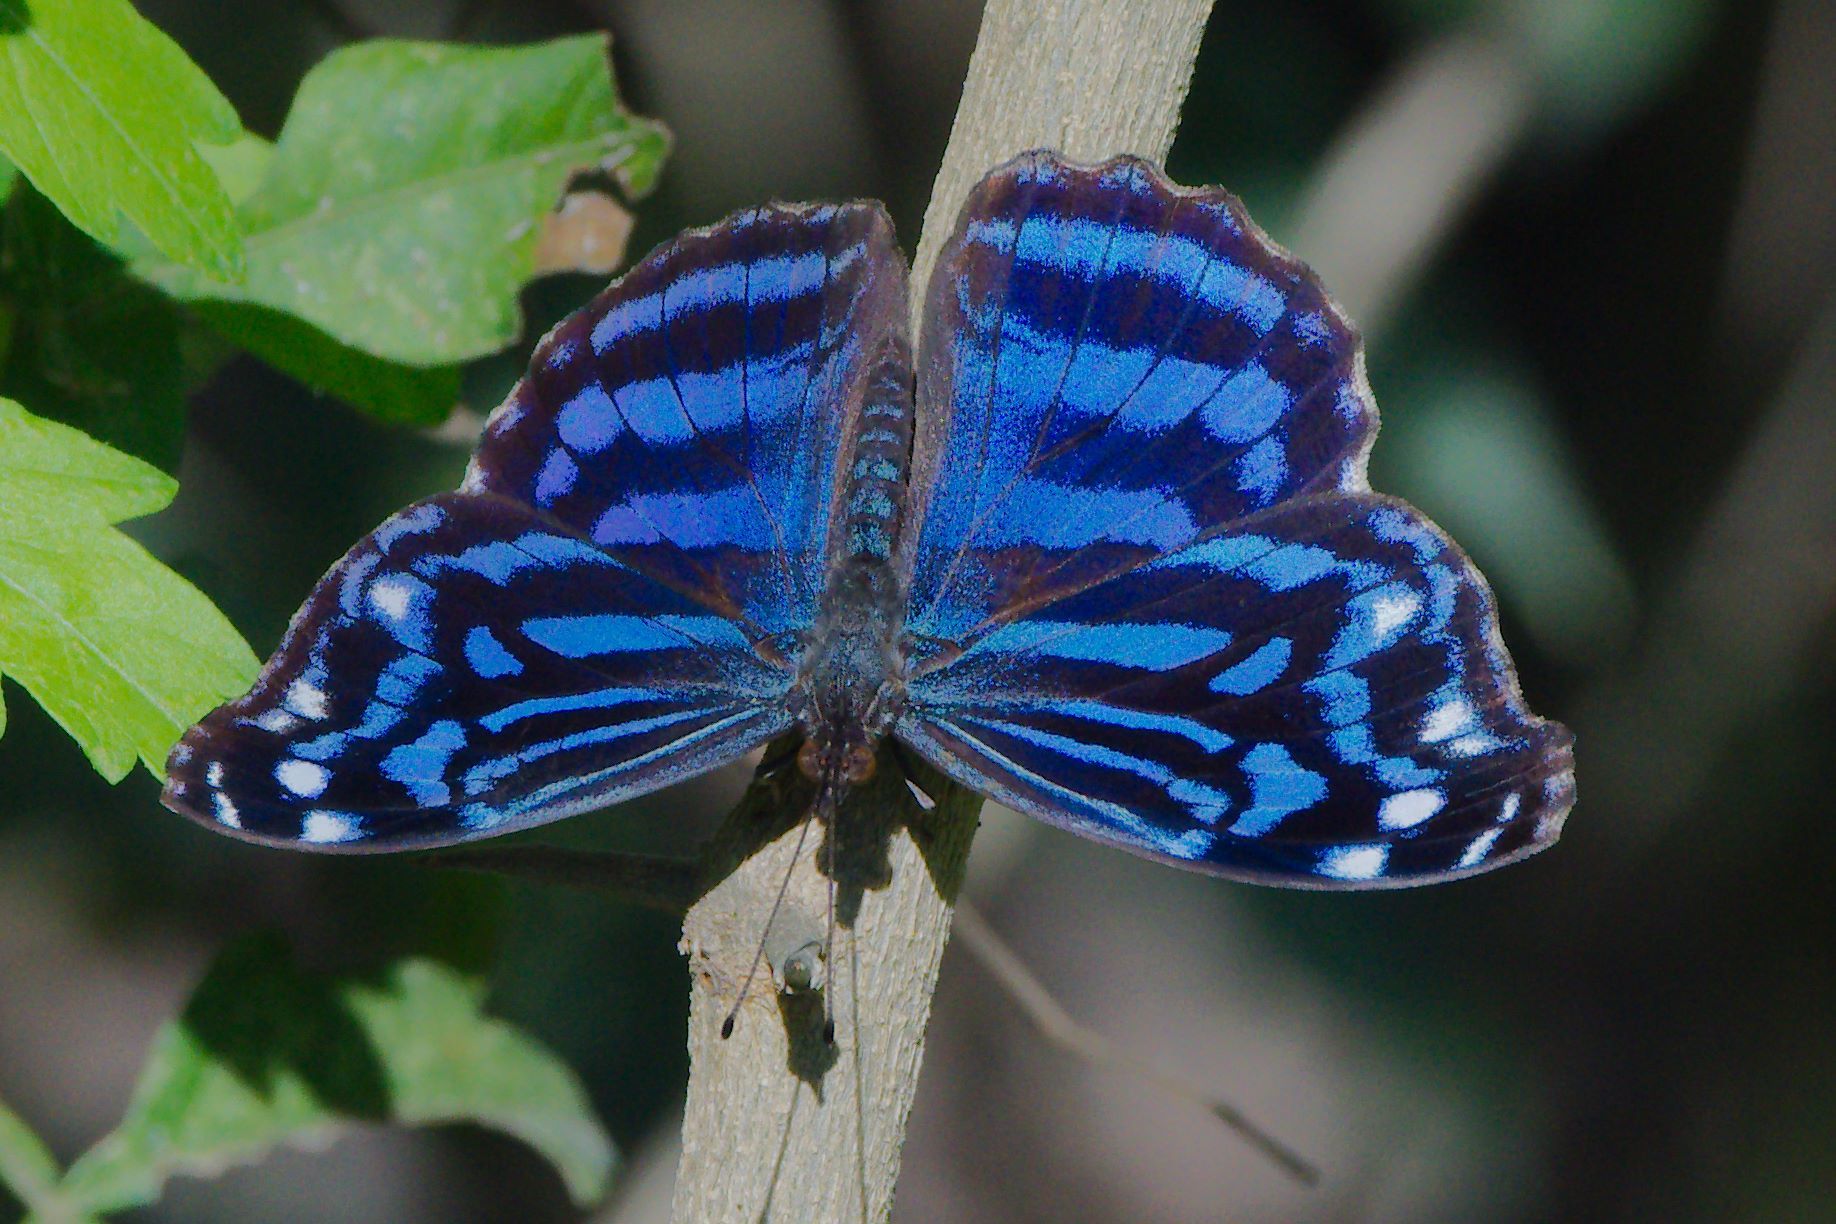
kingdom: Animalia
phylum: Arthropoda
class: Insecta
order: Lepidoptera
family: Nymphalidae
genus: Myscelia
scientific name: Myscelia ethusa
